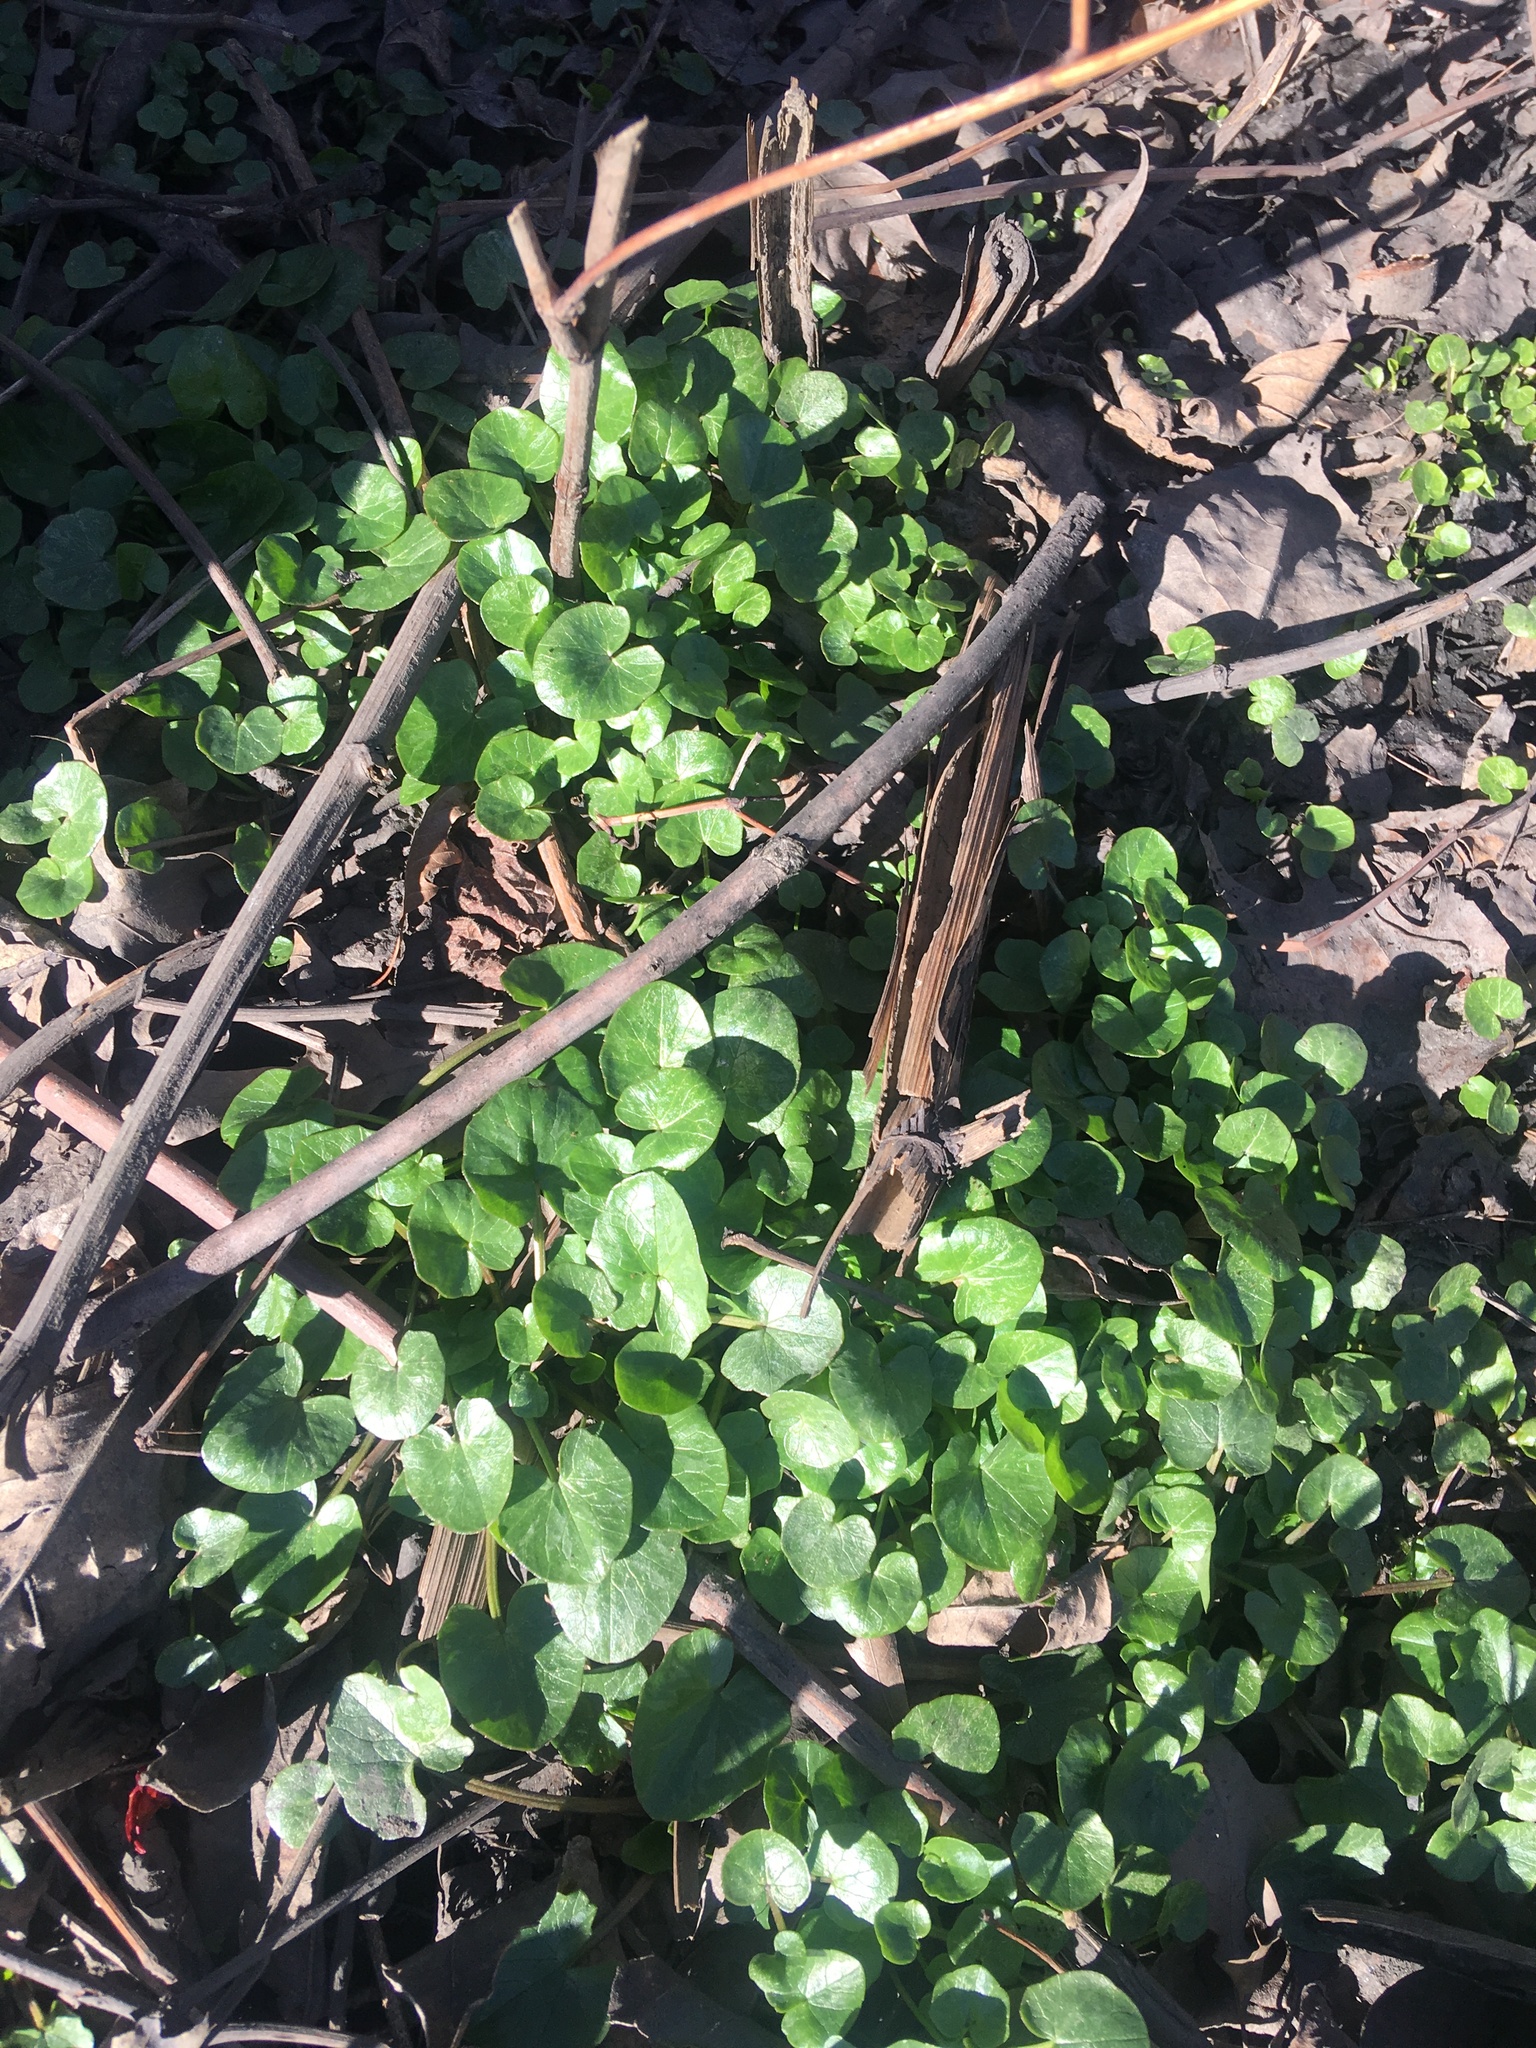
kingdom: Plantae
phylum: Tracheophyta
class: Magnoliopsida
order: Ranunculales
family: Ranunculaceae
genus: Ficaria
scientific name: Ficaria verna
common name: Lesser celandine
